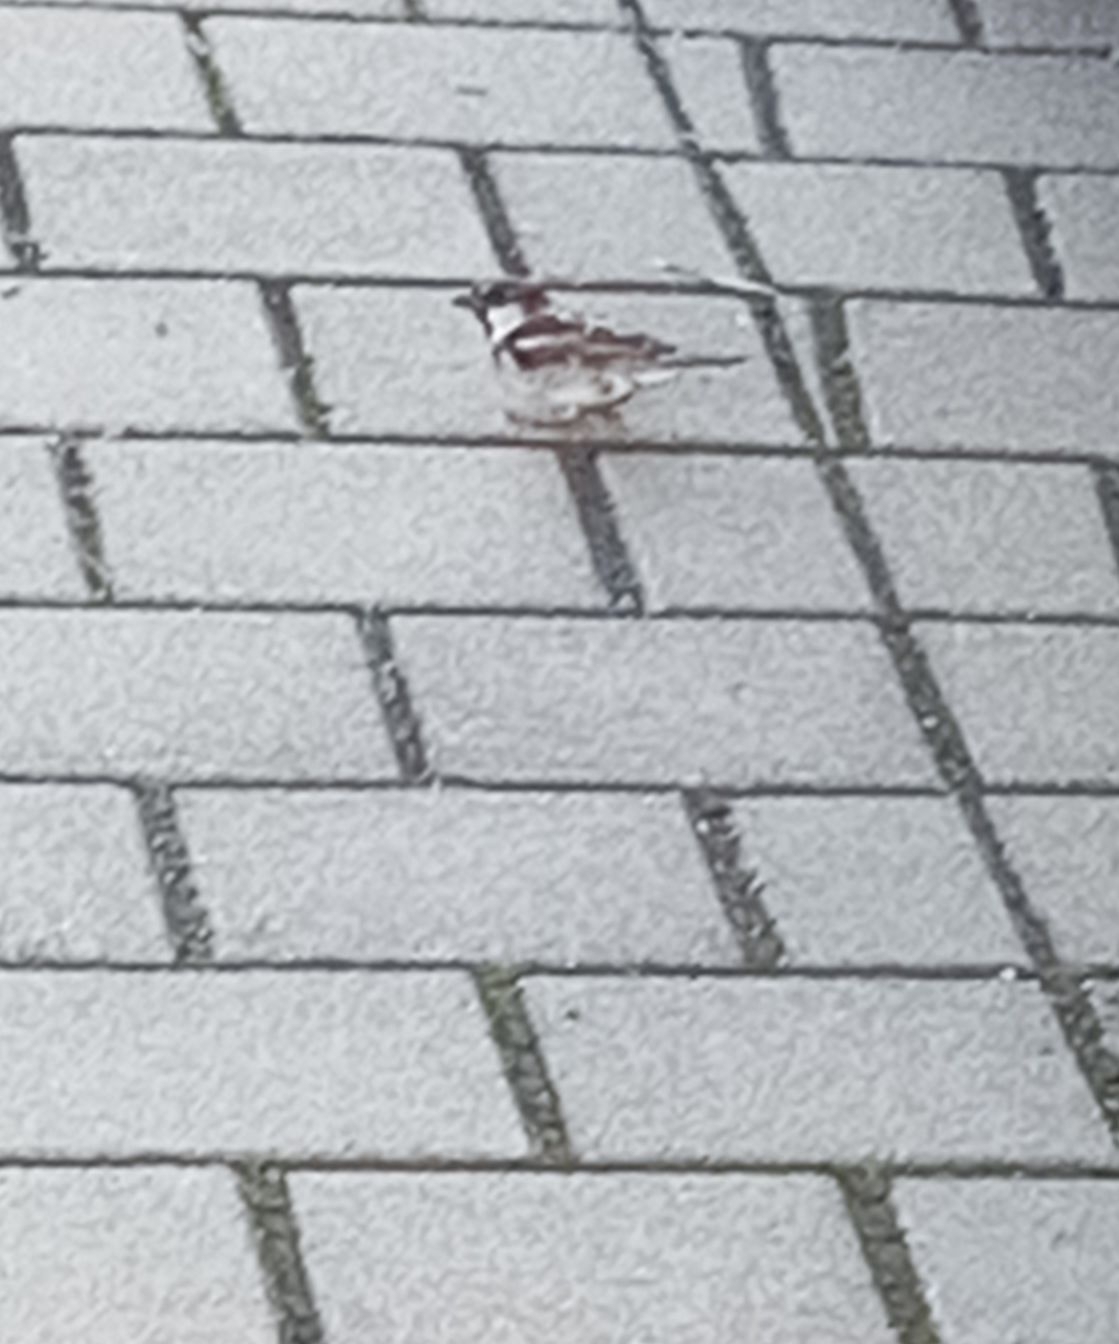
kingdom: Animalia
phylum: Chordata
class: Aves
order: Passeriformes
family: Passeridae
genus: Passer
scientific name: Passer domesticus
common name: House sparrow
